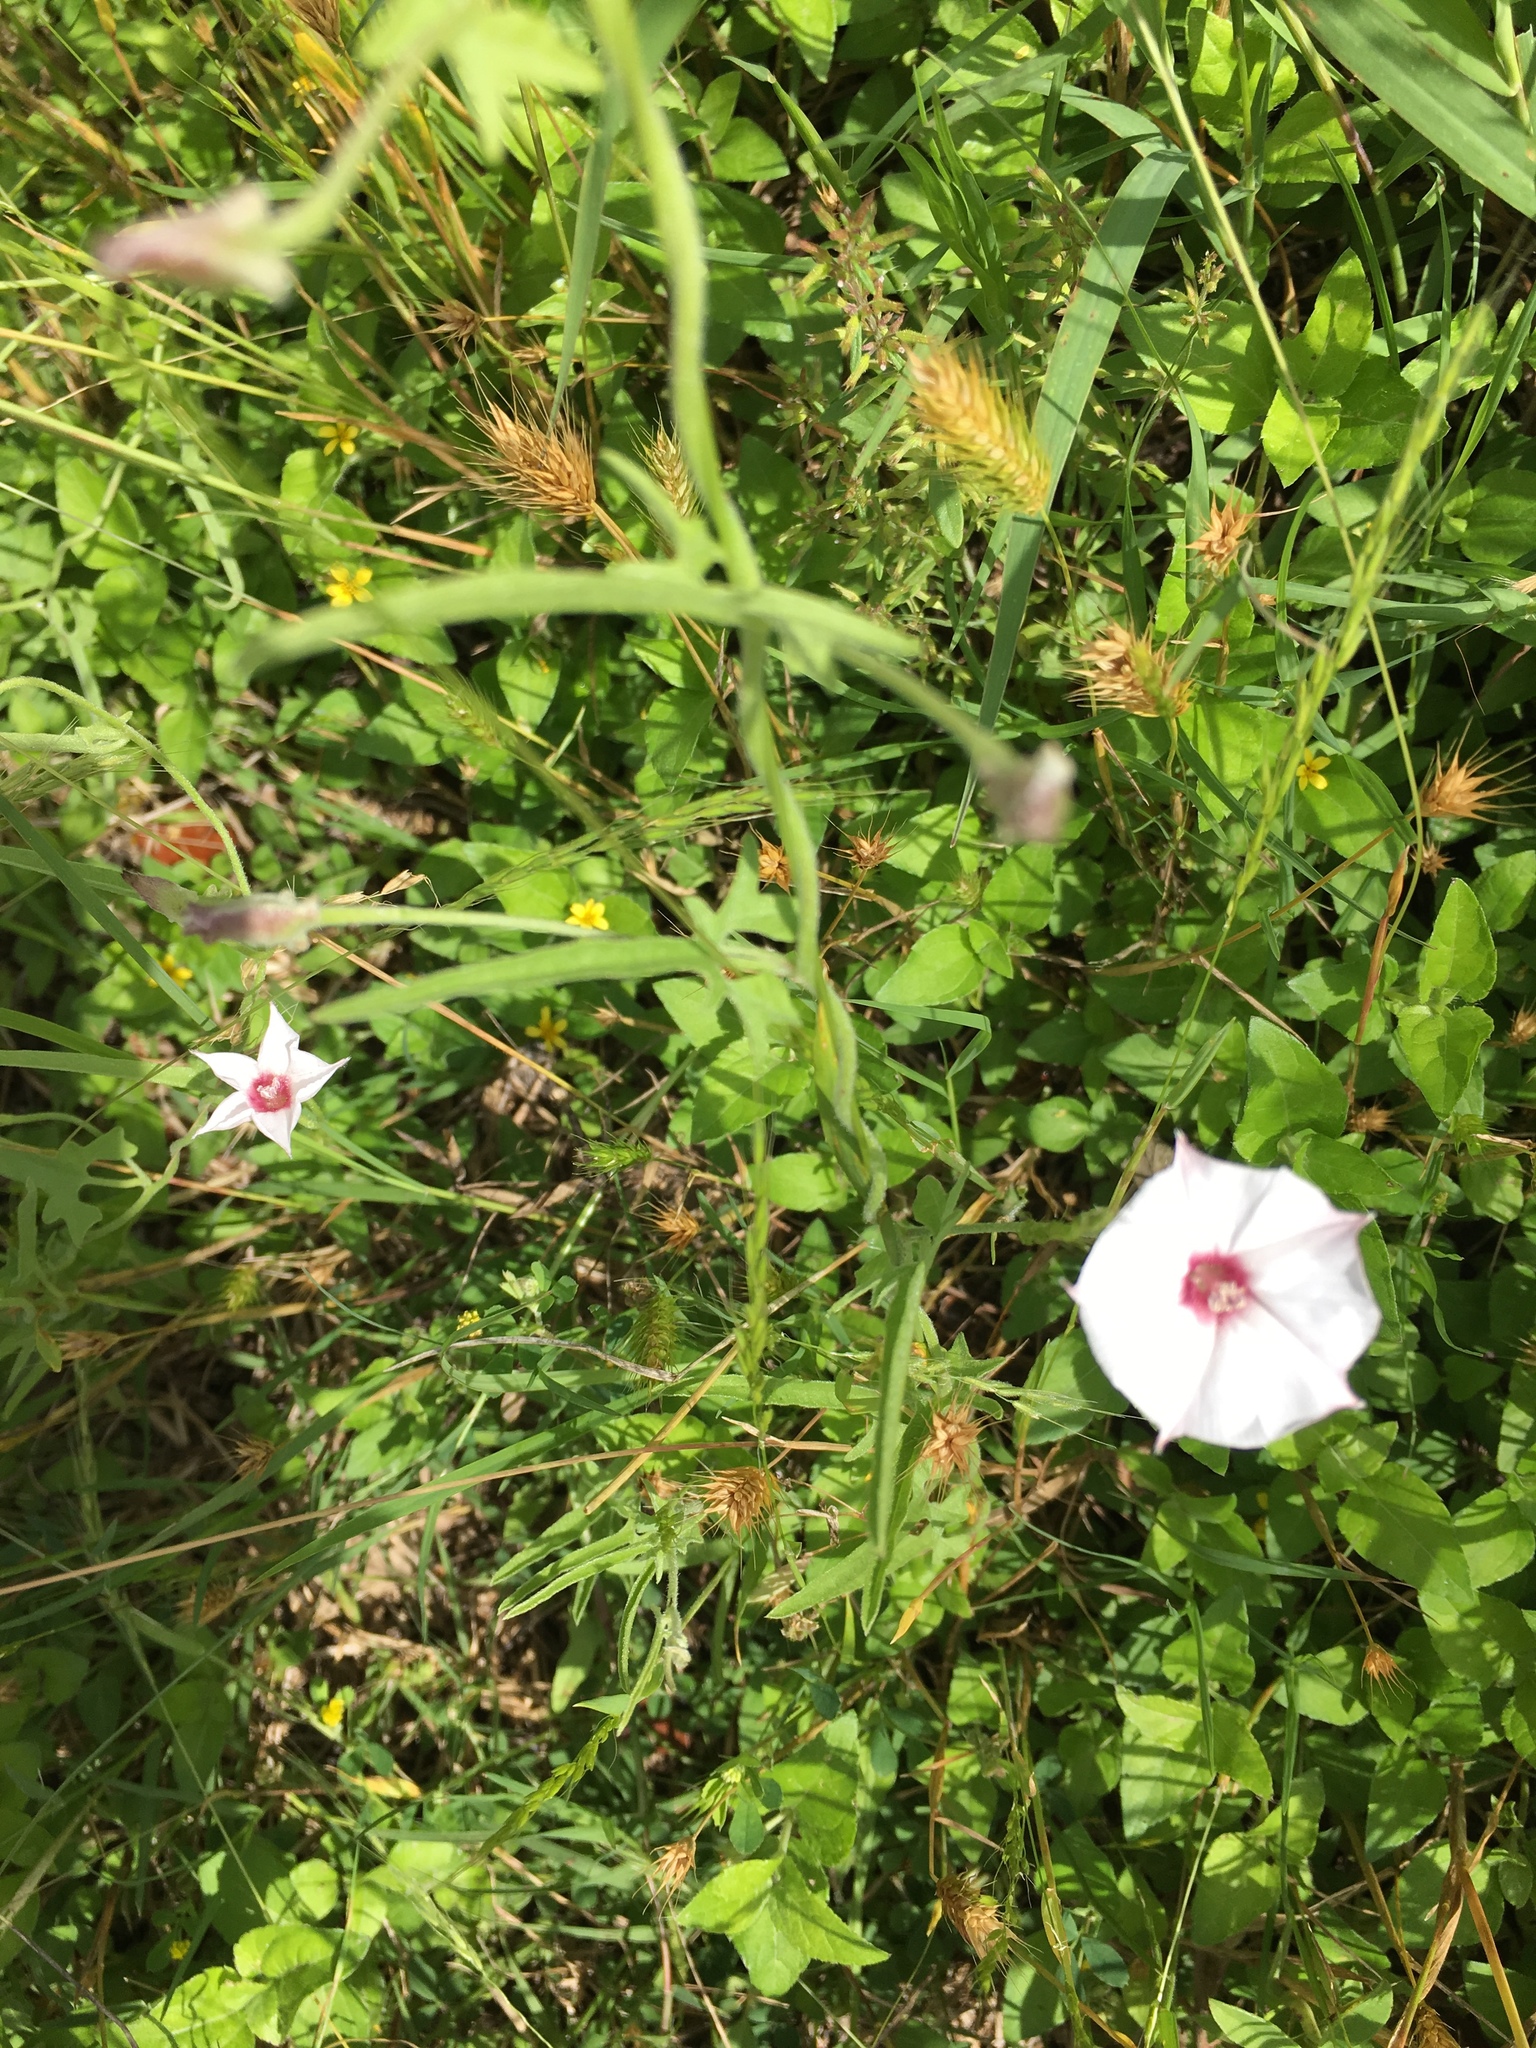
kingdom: Plantae
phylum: Tracheophyta
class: Magnoliopsida
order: Solanales
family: Convolvulaceae
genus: Convolvulus
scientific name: Convolvulus equitans
